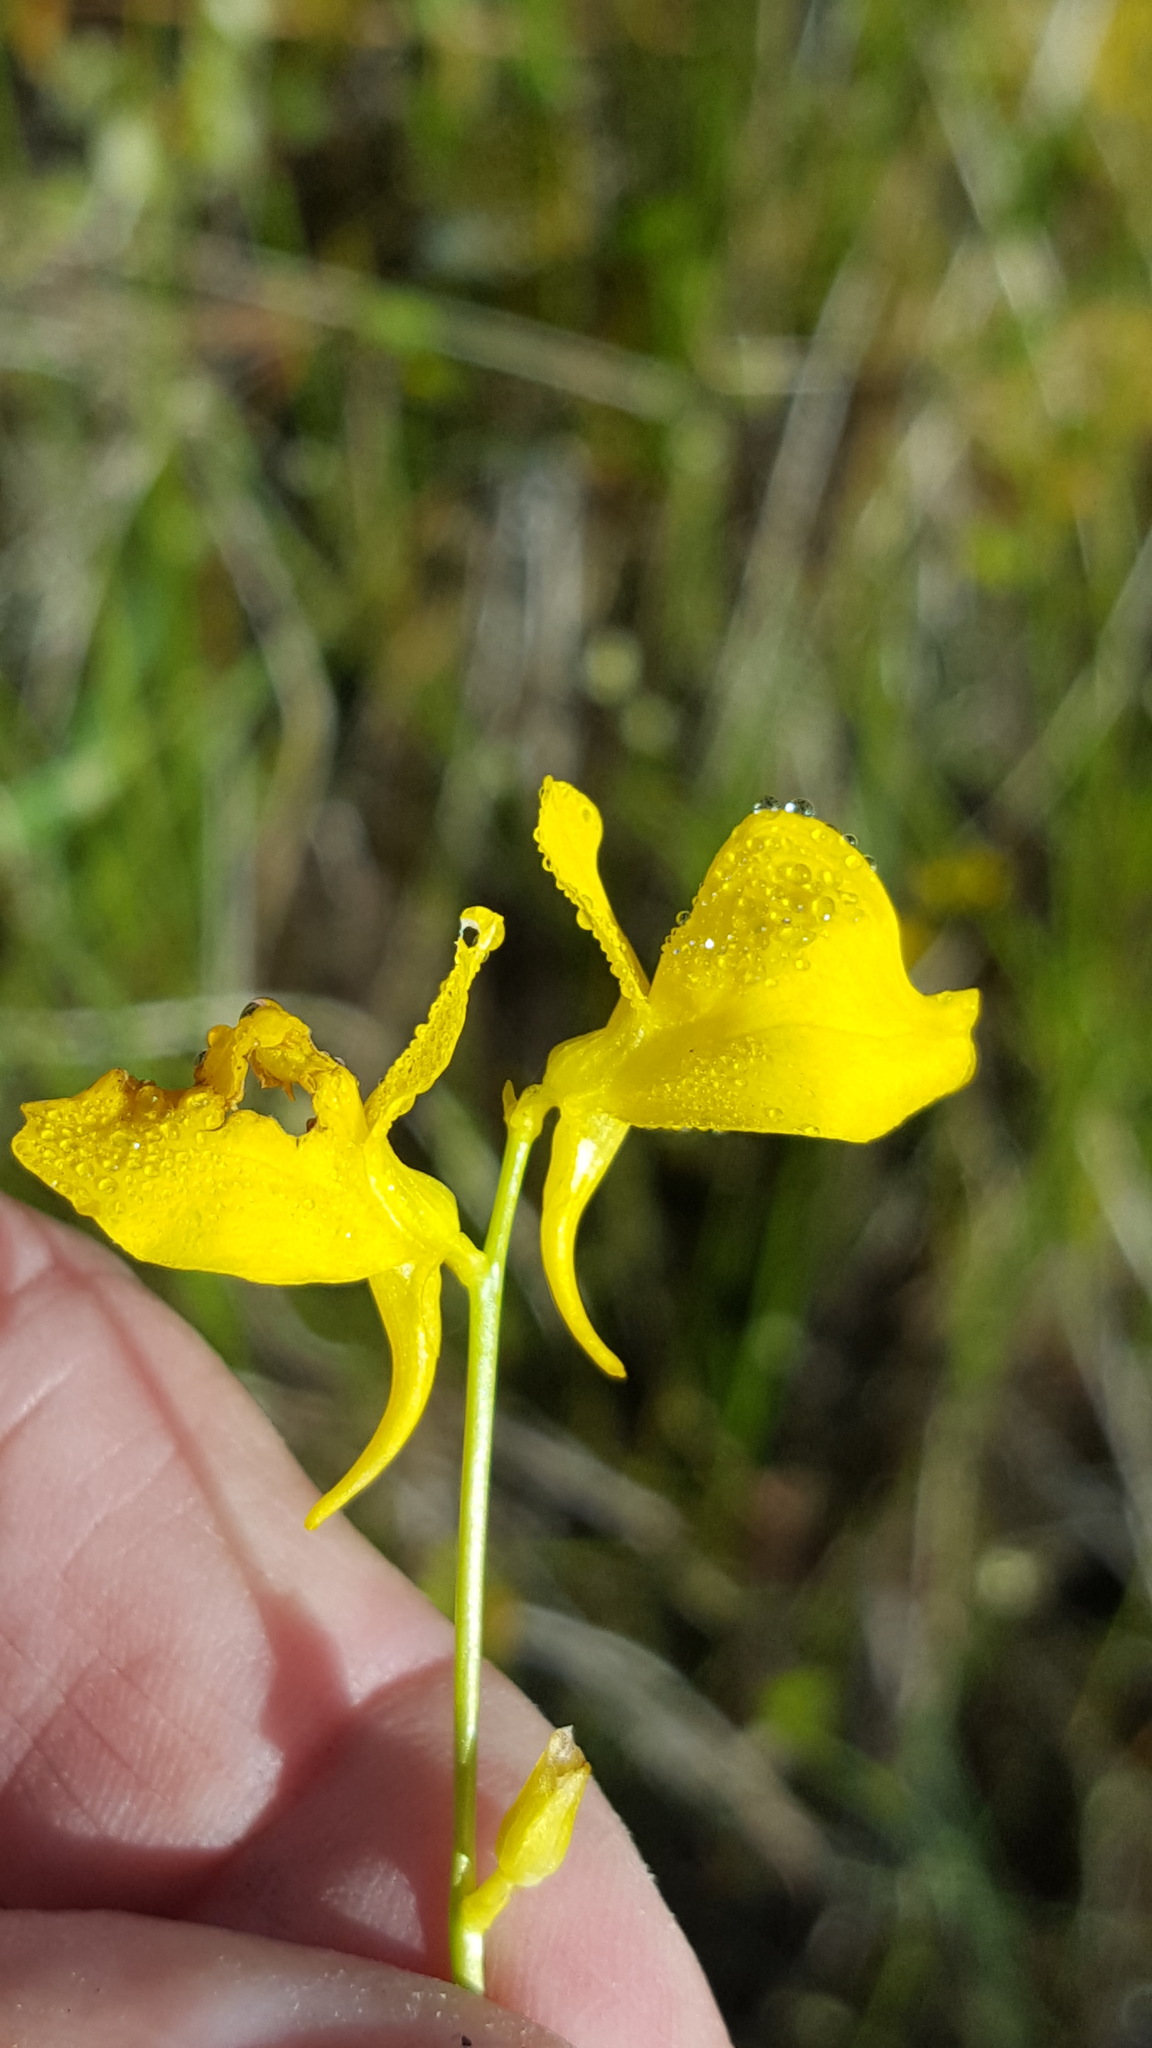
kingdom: Plantae
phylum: Tracheophyta
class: Magnoliopsida
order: Lamiales
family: Lentibulariaceae
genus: Utricularia
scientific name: Utricularia cornuta
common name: Horned bladderwort
